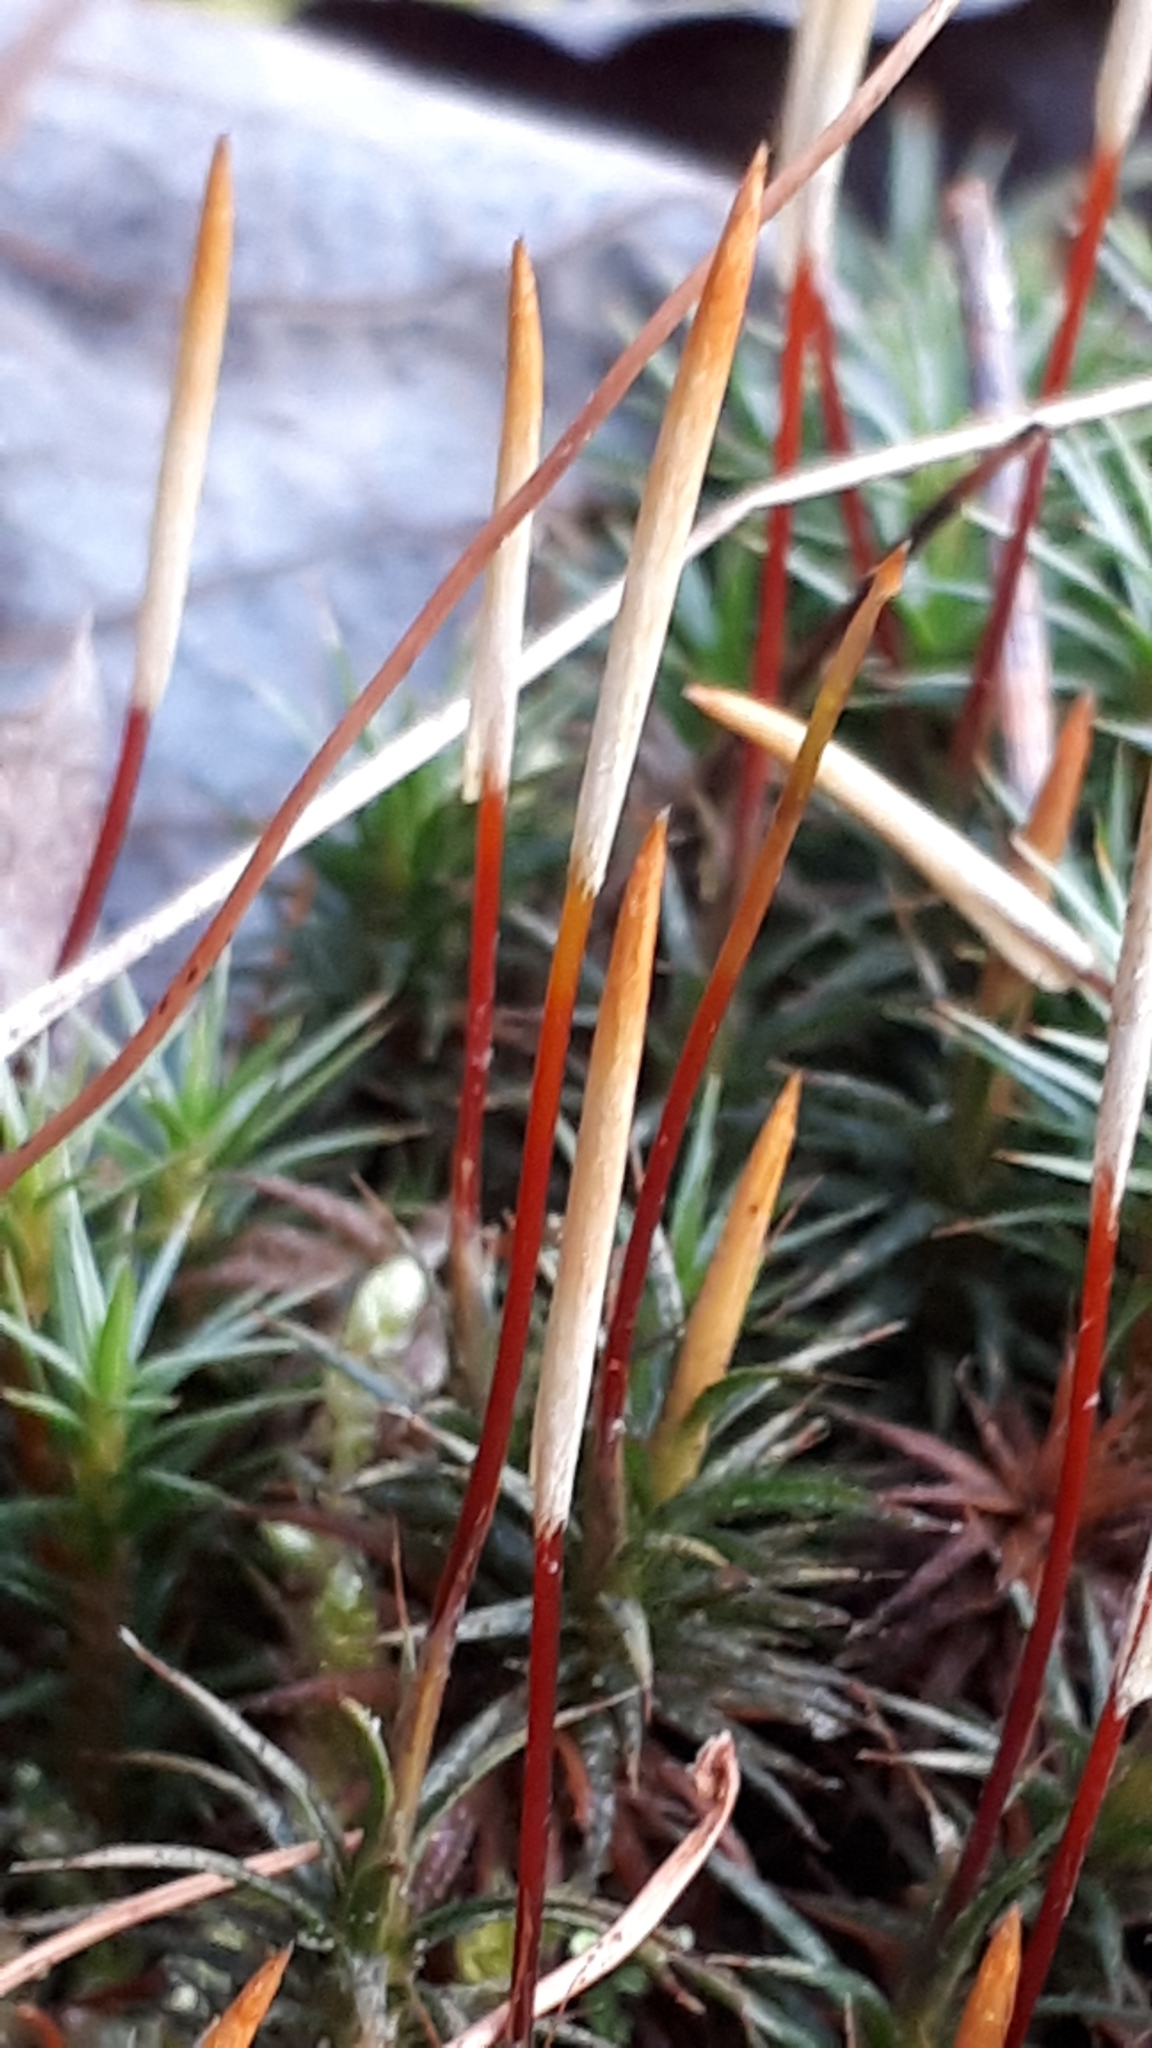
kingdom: Plantae
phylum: Bryophyta
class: Polytrichopsida
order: Polytrichales
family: Polytrichaceae
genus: Polytrichum
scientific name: Polytrichum juniperinum
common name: Juniper haircap moss
